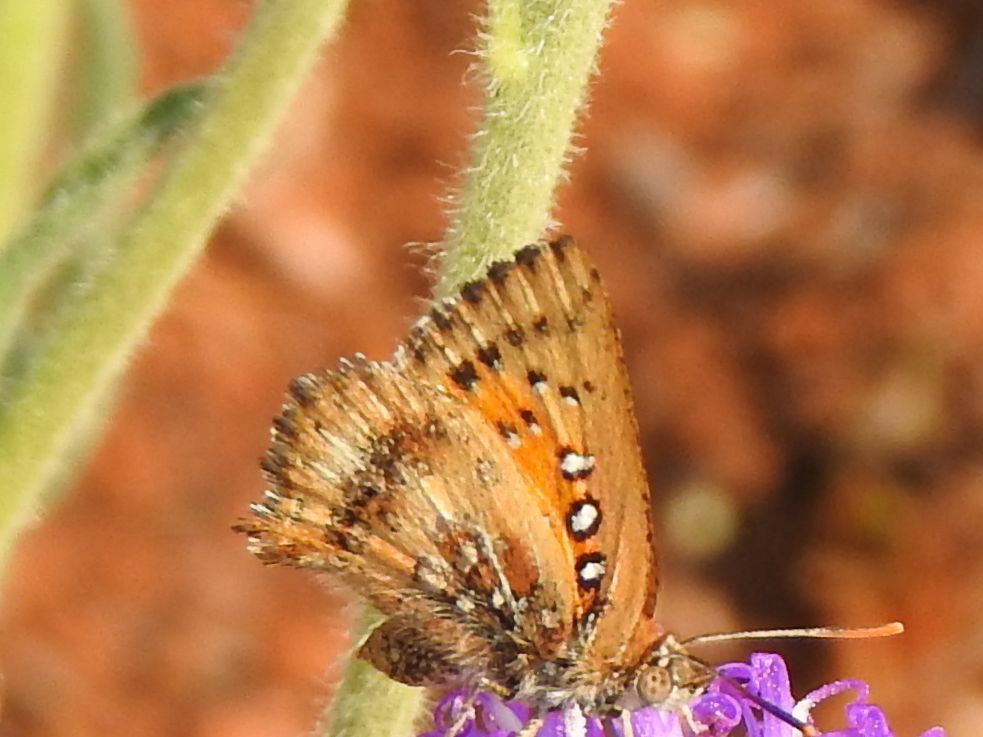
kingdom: Animalia
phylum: Arthropoda
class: Insecta
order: Lepidoptera
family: Lycaenidae
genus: Aloeides
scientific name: Aloeides molomo
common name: Mottled russet
